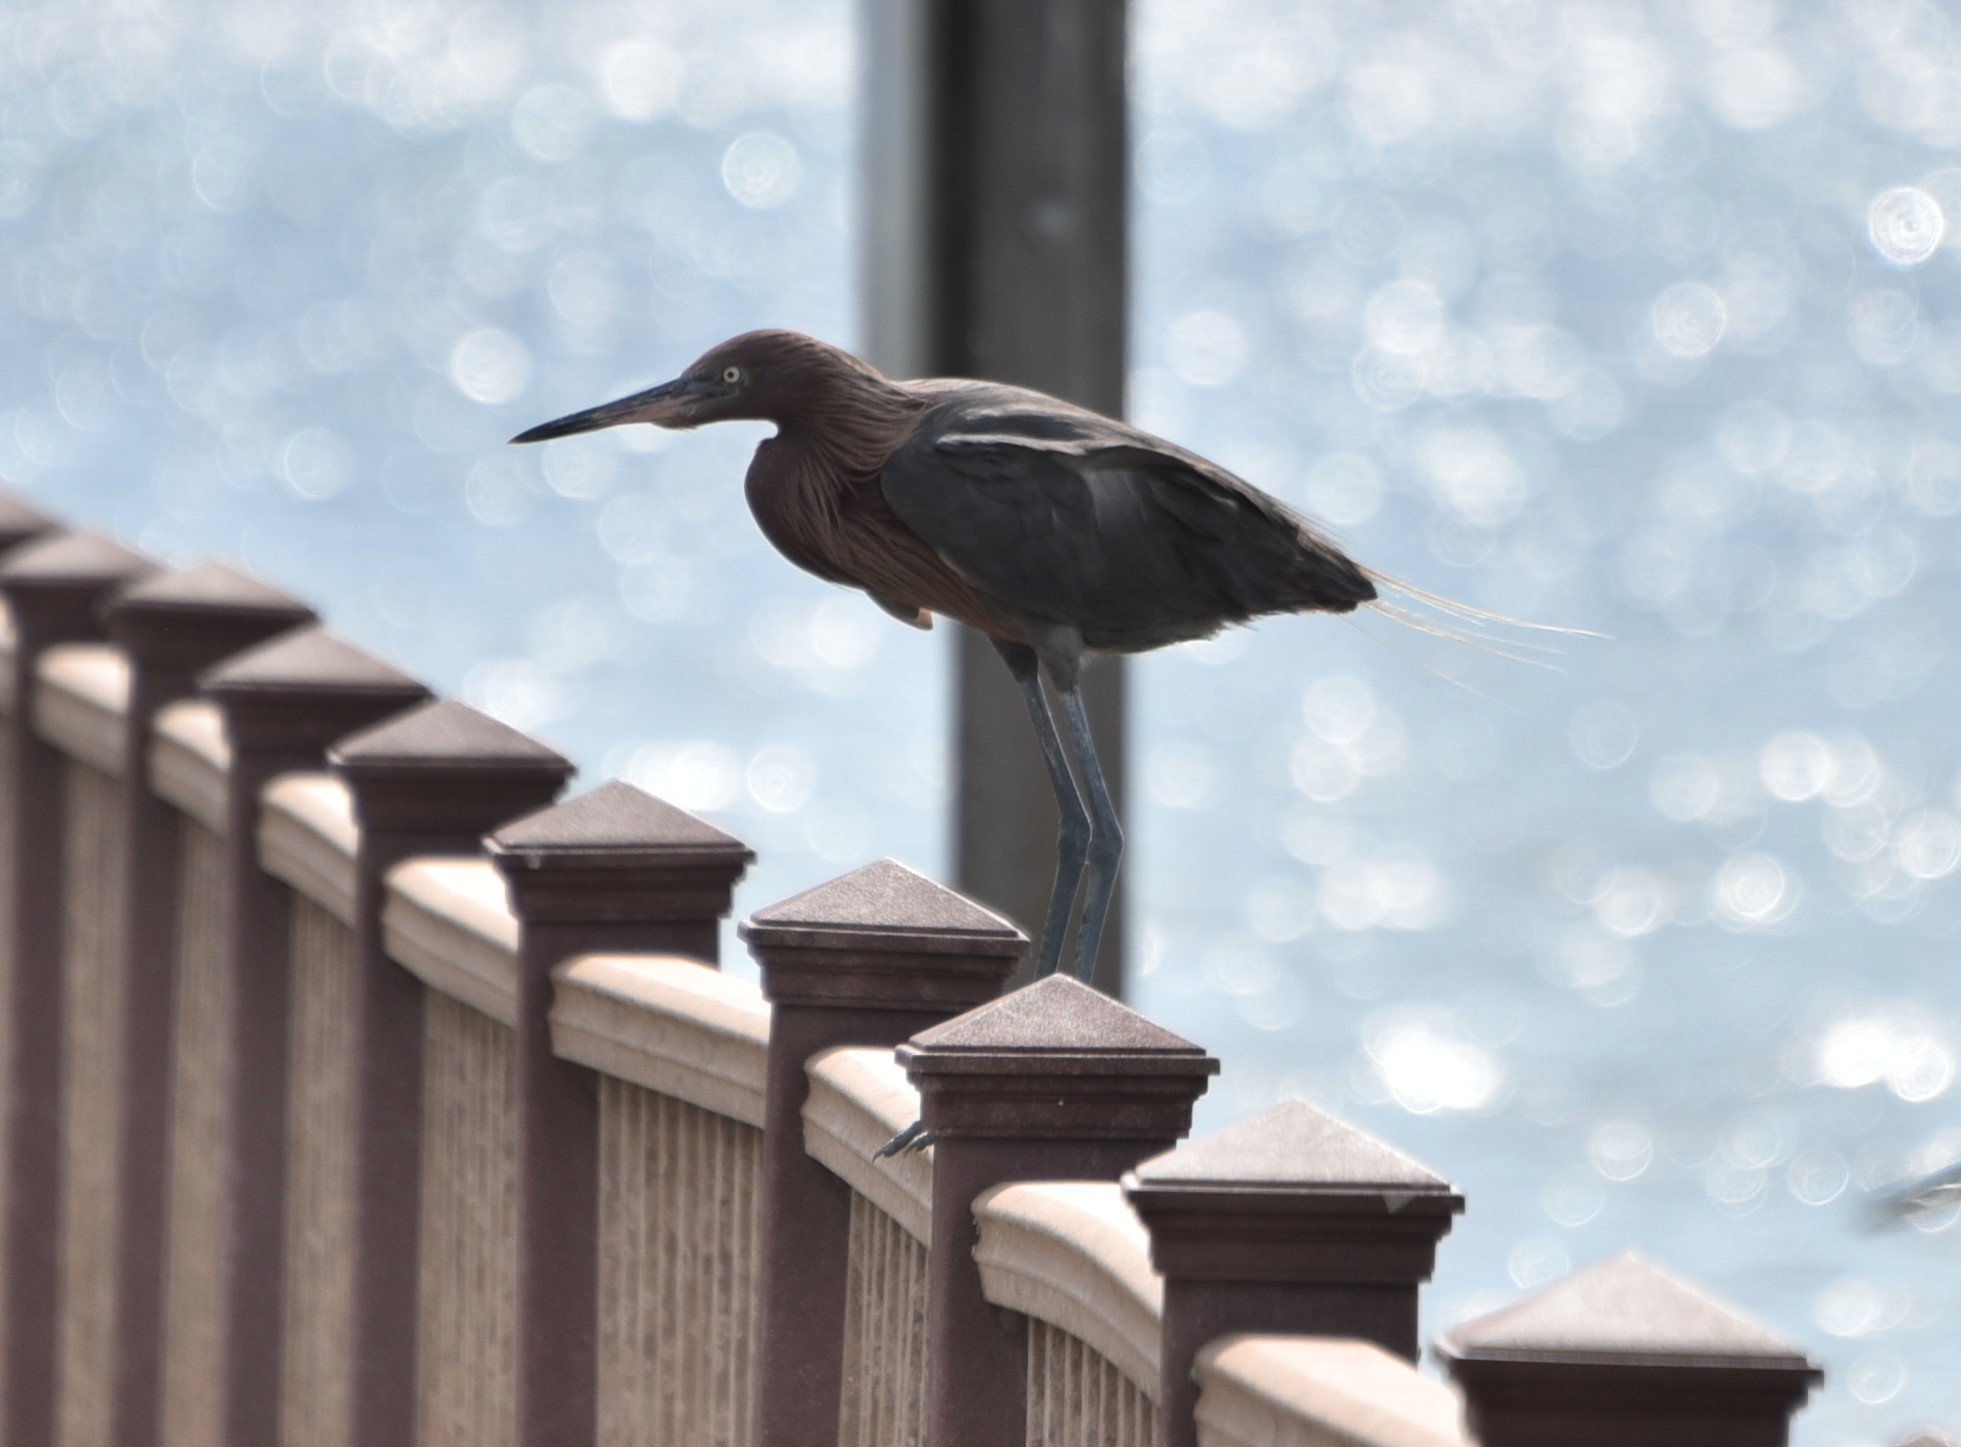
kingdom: Animalia
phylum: Chordata
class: Aves
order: Pelecaniformes
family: Ardeidae
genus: Egretta
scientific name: Egretta rufescens
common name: Reddish egret
